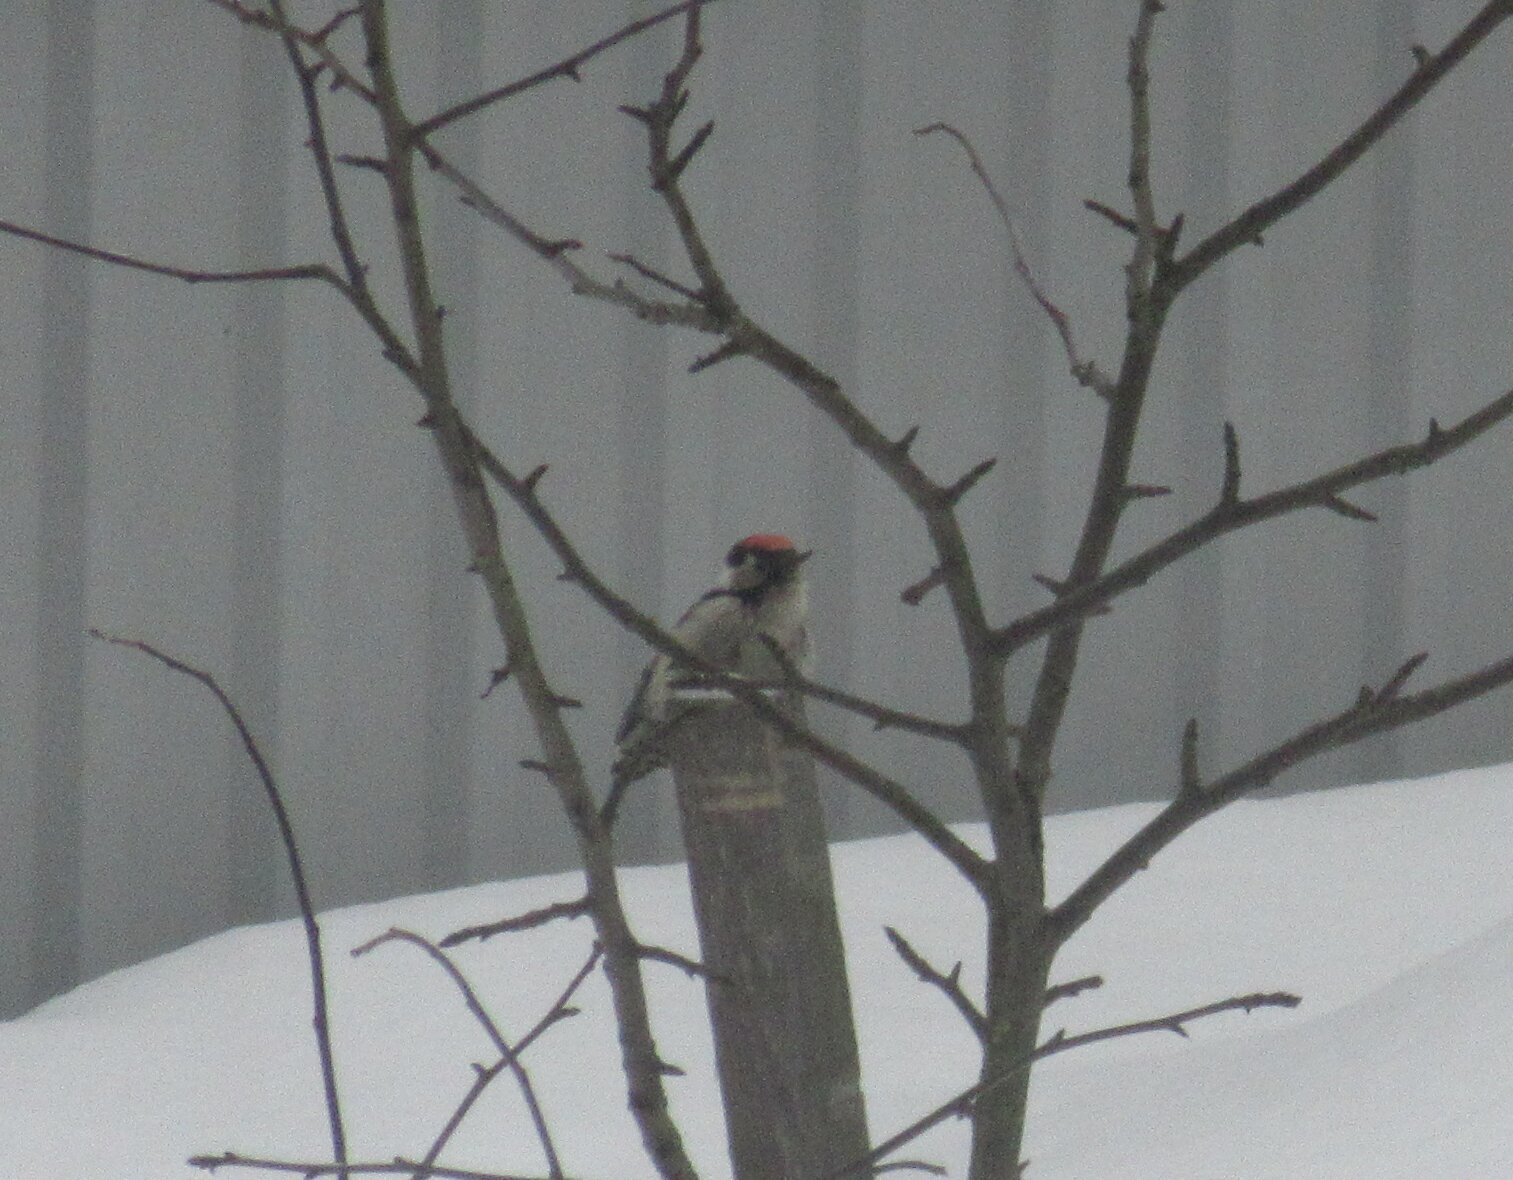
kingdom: Animalia
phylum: Chordata
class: Aves
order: Piciformes
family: Picidae
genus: Dryobates
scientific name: Dryobates minor
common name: Lesser spotted woodpecker
